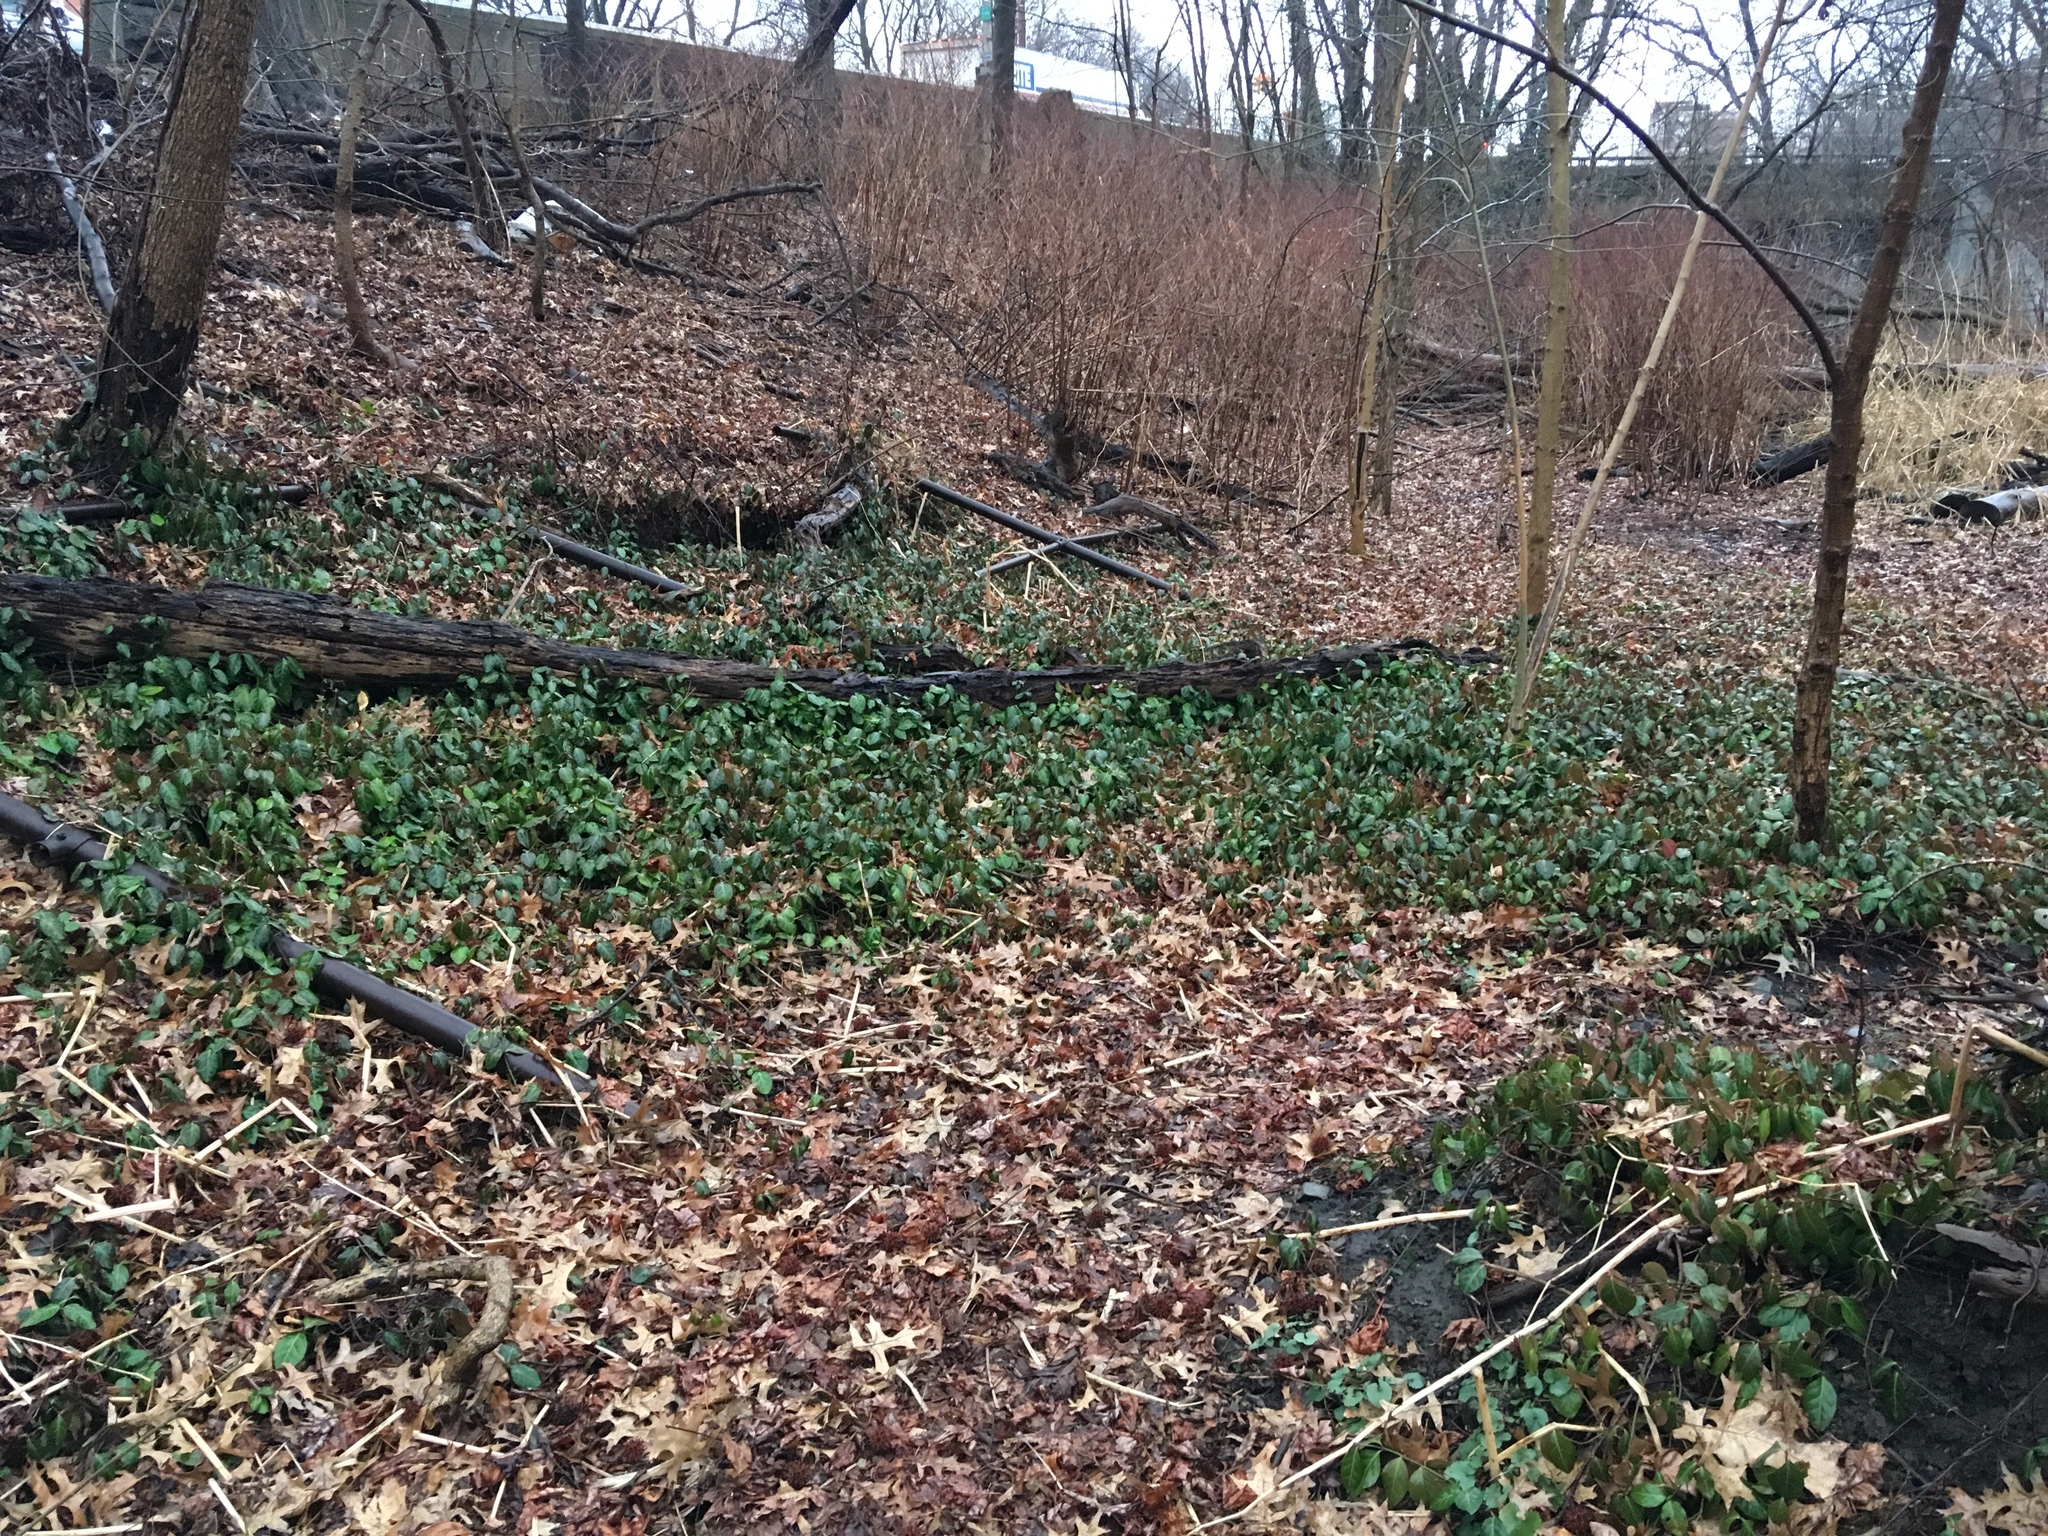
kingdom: Plantae
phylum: Tracheophyta
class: Magnoliopsida
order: Celastrales
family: Celastraceae
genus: Euonymus
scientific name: Euonymus fortunei
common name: Climbing euonymus
